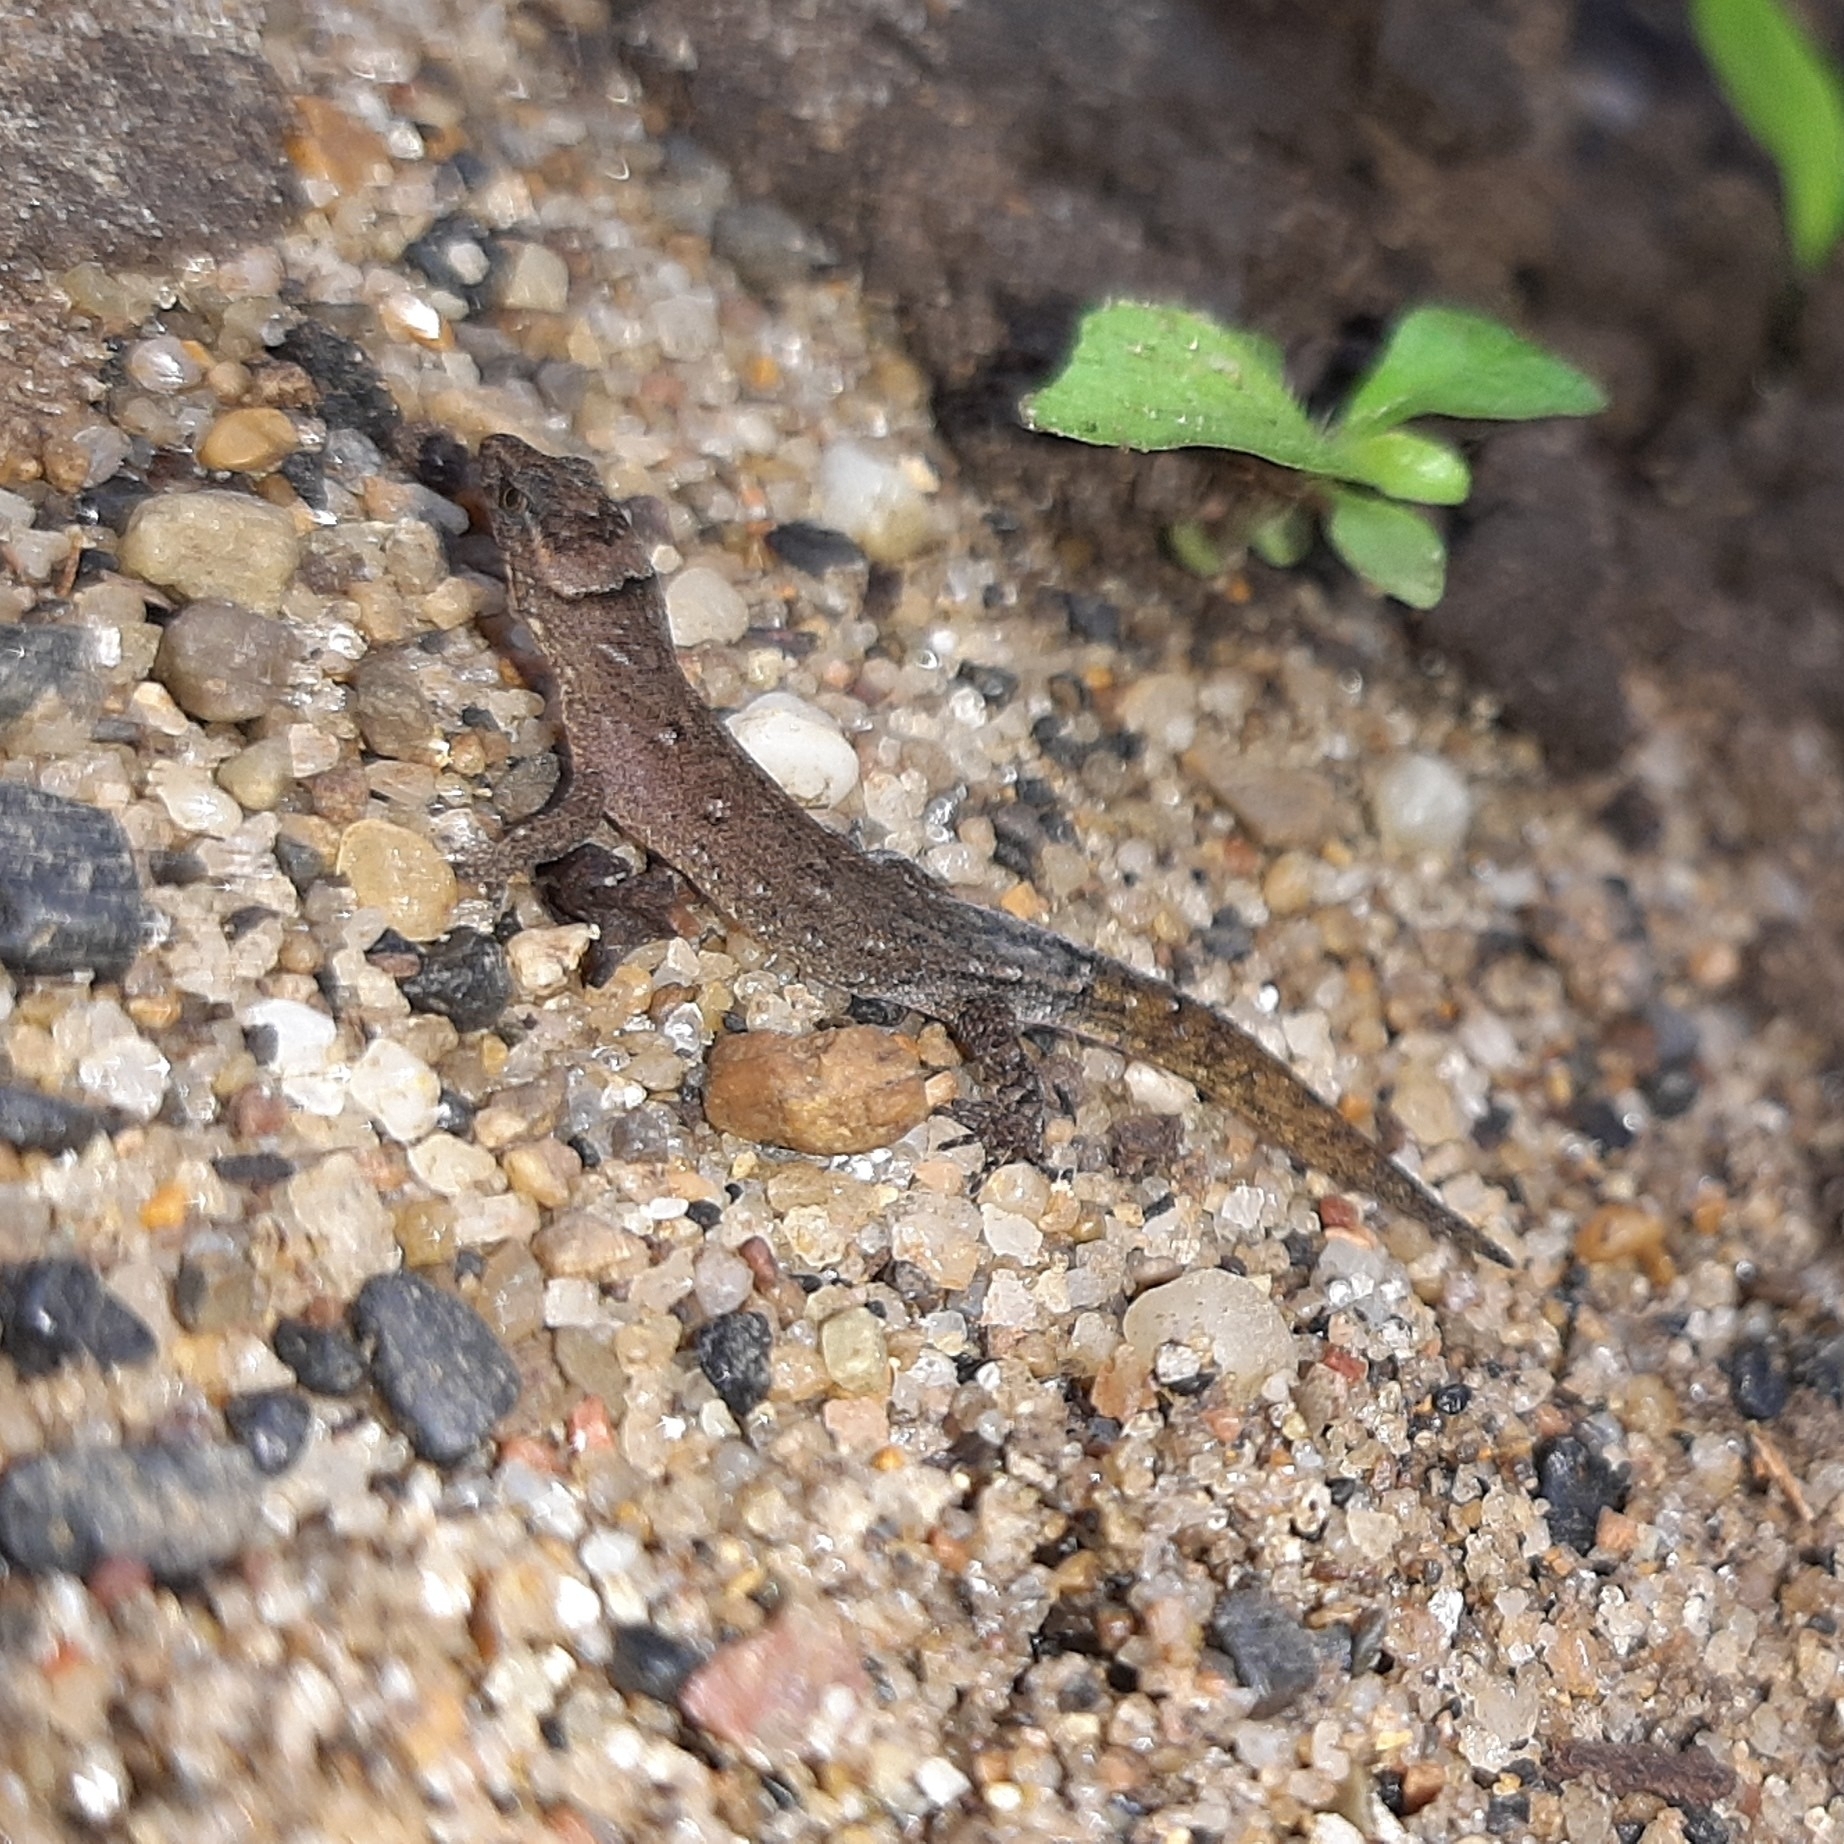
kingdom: Animalia
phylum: Chordata
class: Squamata
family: Sphaerodactylidae
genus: Lepidoblepharis
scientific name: Lepidoblepharis sanctaemartae
